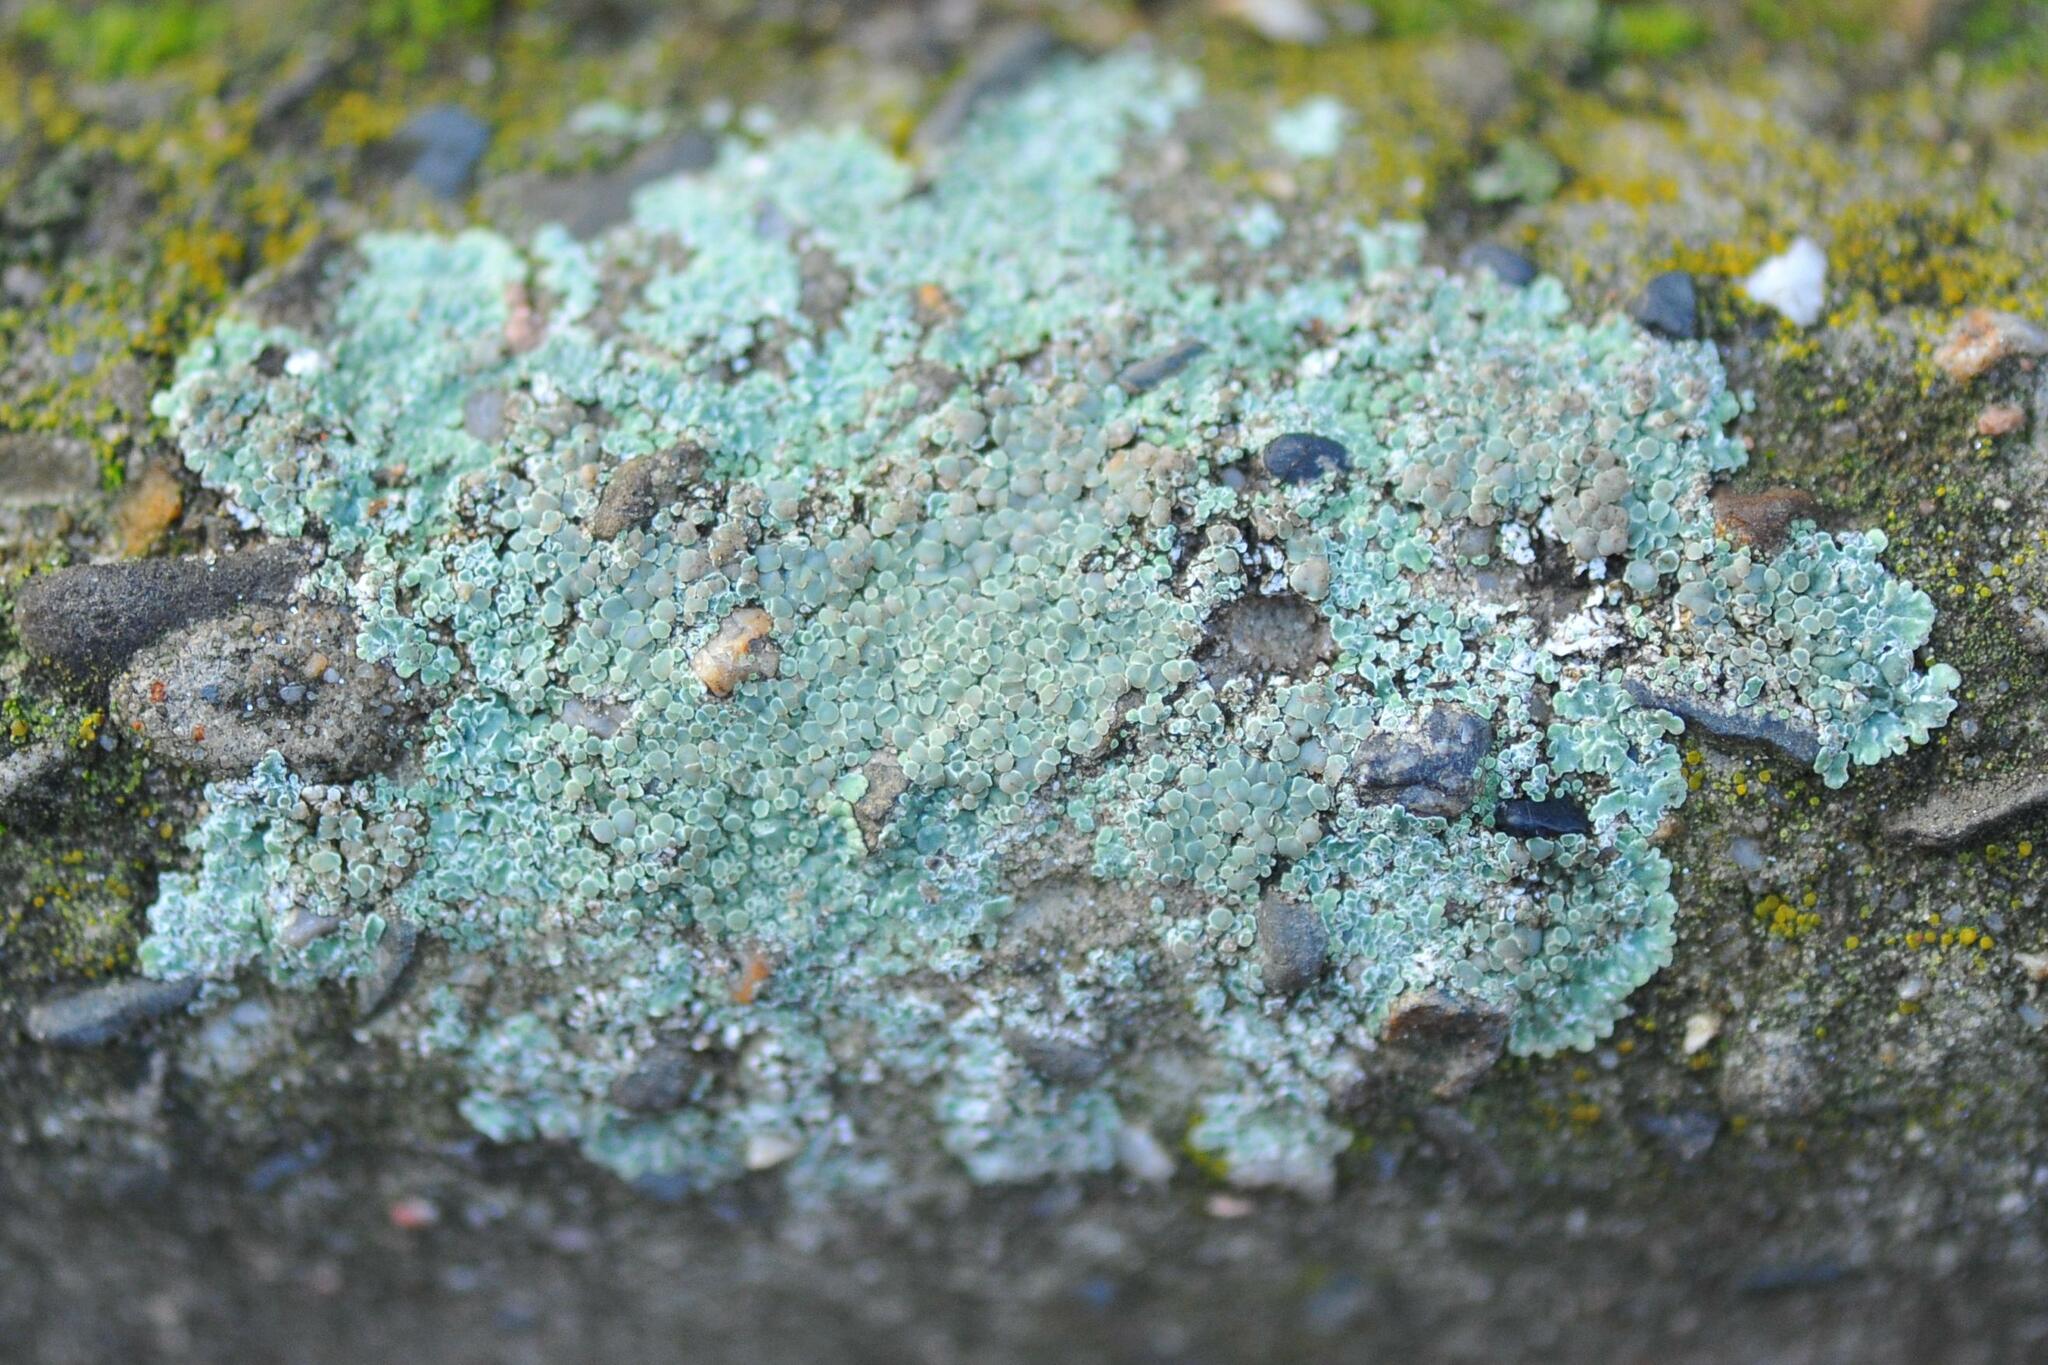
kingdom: Fungi
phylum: Ascomycota
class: Lecanoromycetes
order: Lecanorales
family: Lecanoraceae
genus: Protoparmeliopsis
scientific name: Protoparmeliopsis muralis
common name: Stonewall rim lichen
